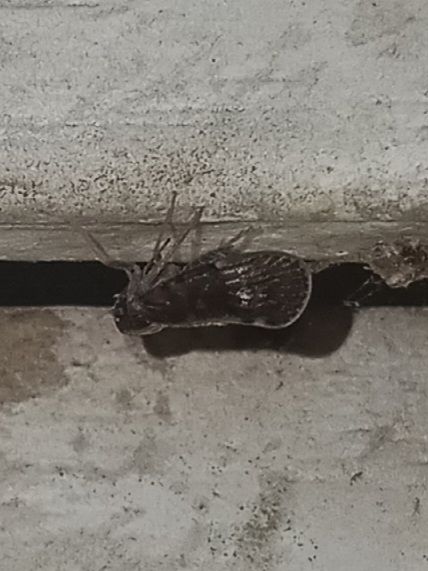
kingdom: Animalia
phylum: Arthropoda
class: Insecta
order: Hemiptera
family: Cixiidae
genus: Pintalia
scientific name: Pintalia vibex
